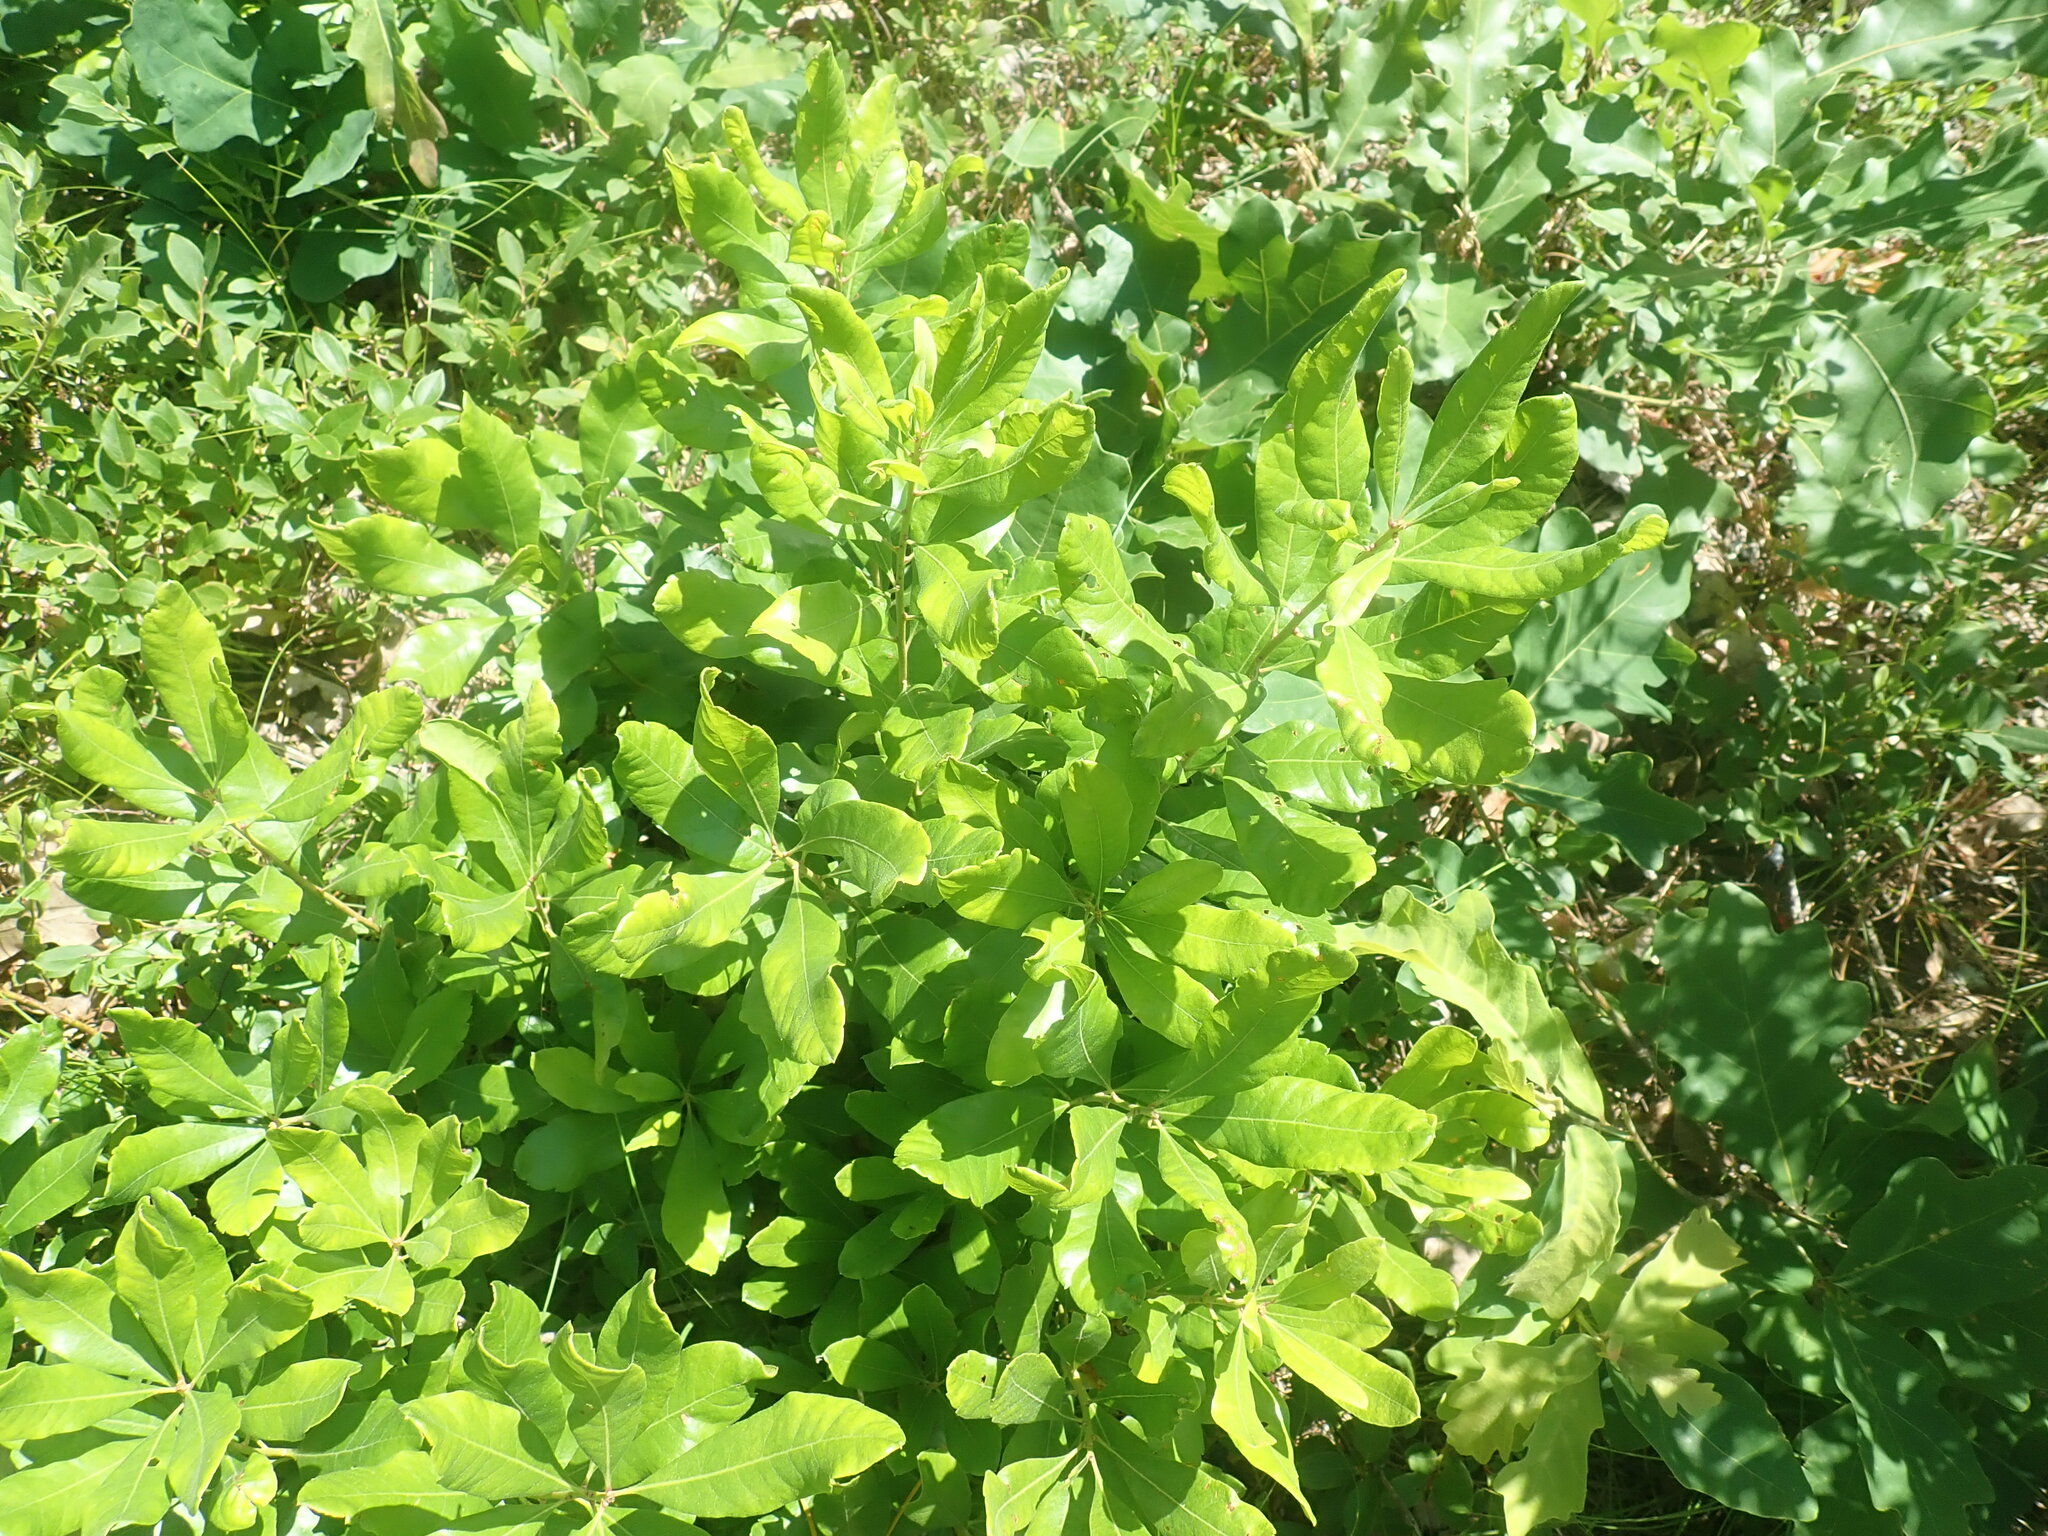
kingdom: Plantae
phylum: Tracheophyta
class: Magnoliopsida
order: Fagales
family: Myricaceae
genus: Morella
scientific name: Morella pensylvanica
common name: Northern bayberry
